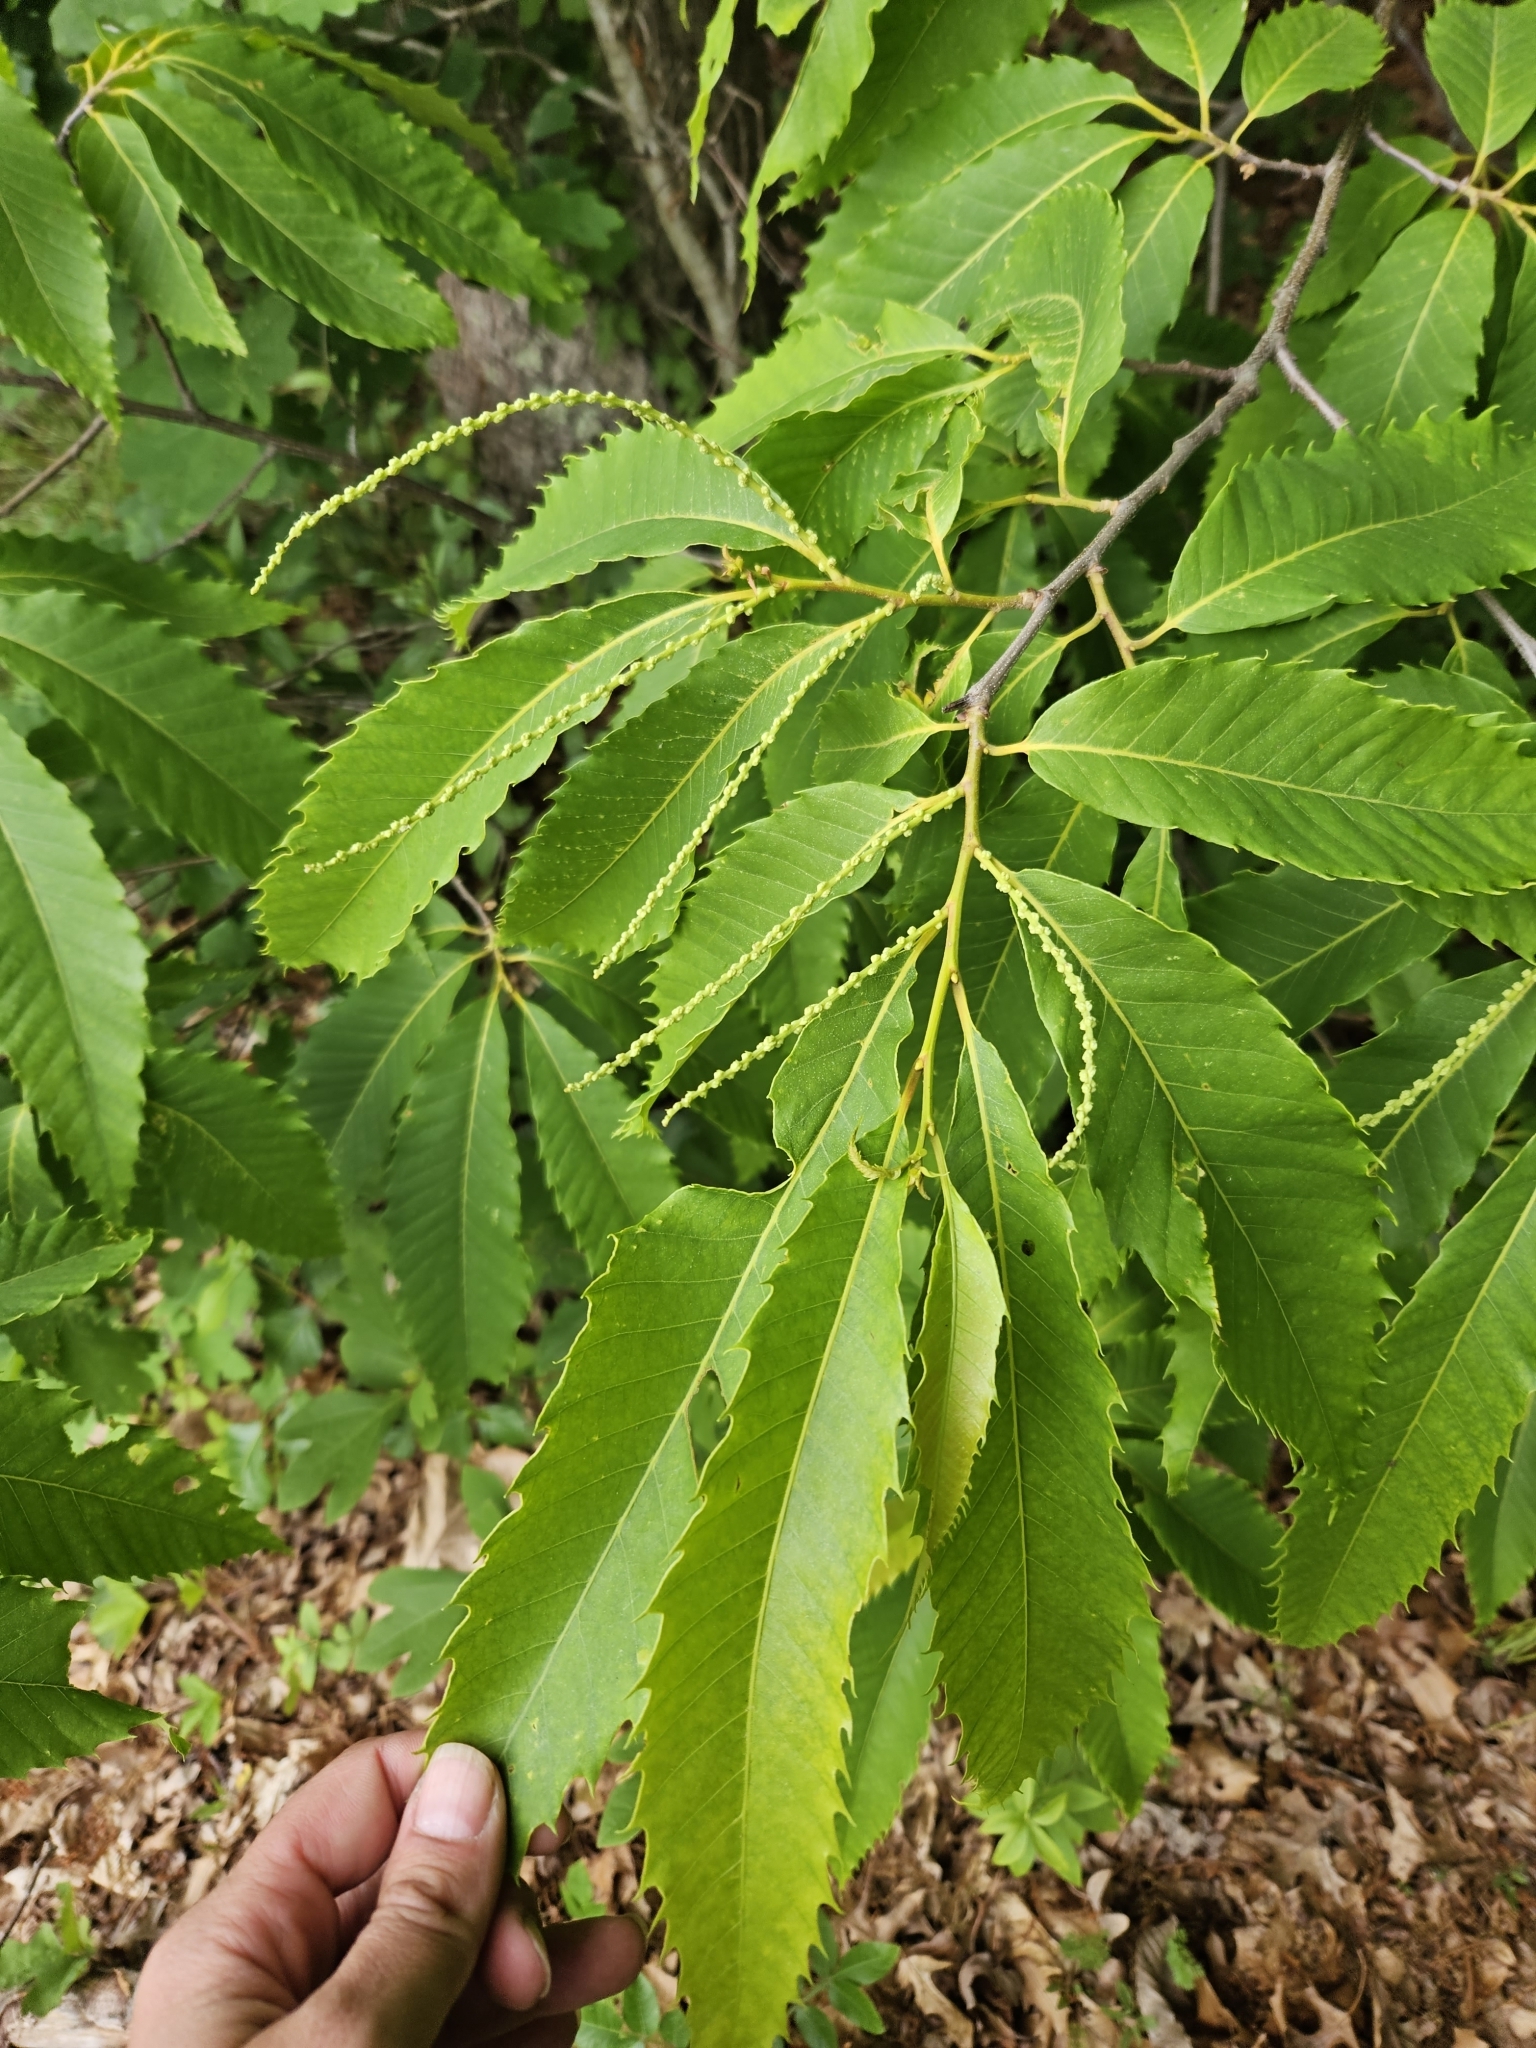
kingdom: Plantae
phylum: Tracheophyta
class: Magnoliopsida
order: Fagales
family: Fagaceae
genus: Castanea
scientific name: Castanea dentata
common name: American chestnut
